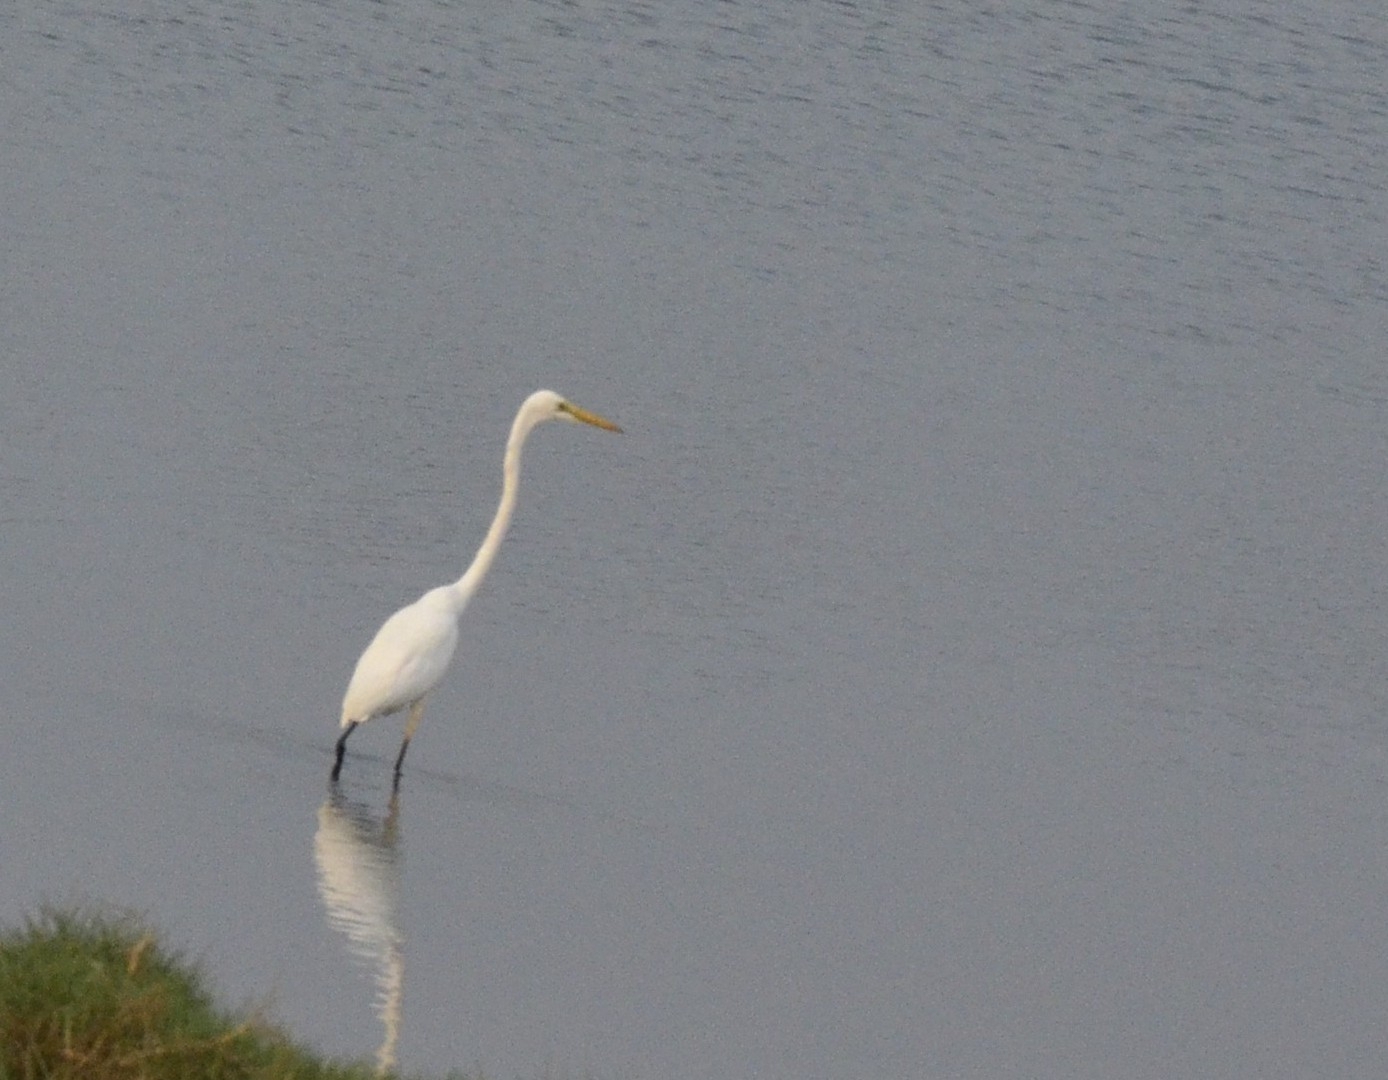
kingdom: Animalia
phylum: Chordata
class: Aves
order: Pelecaniformes
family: Ardeidae
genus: Ardea
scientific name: Ardea alba
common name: Great egret
